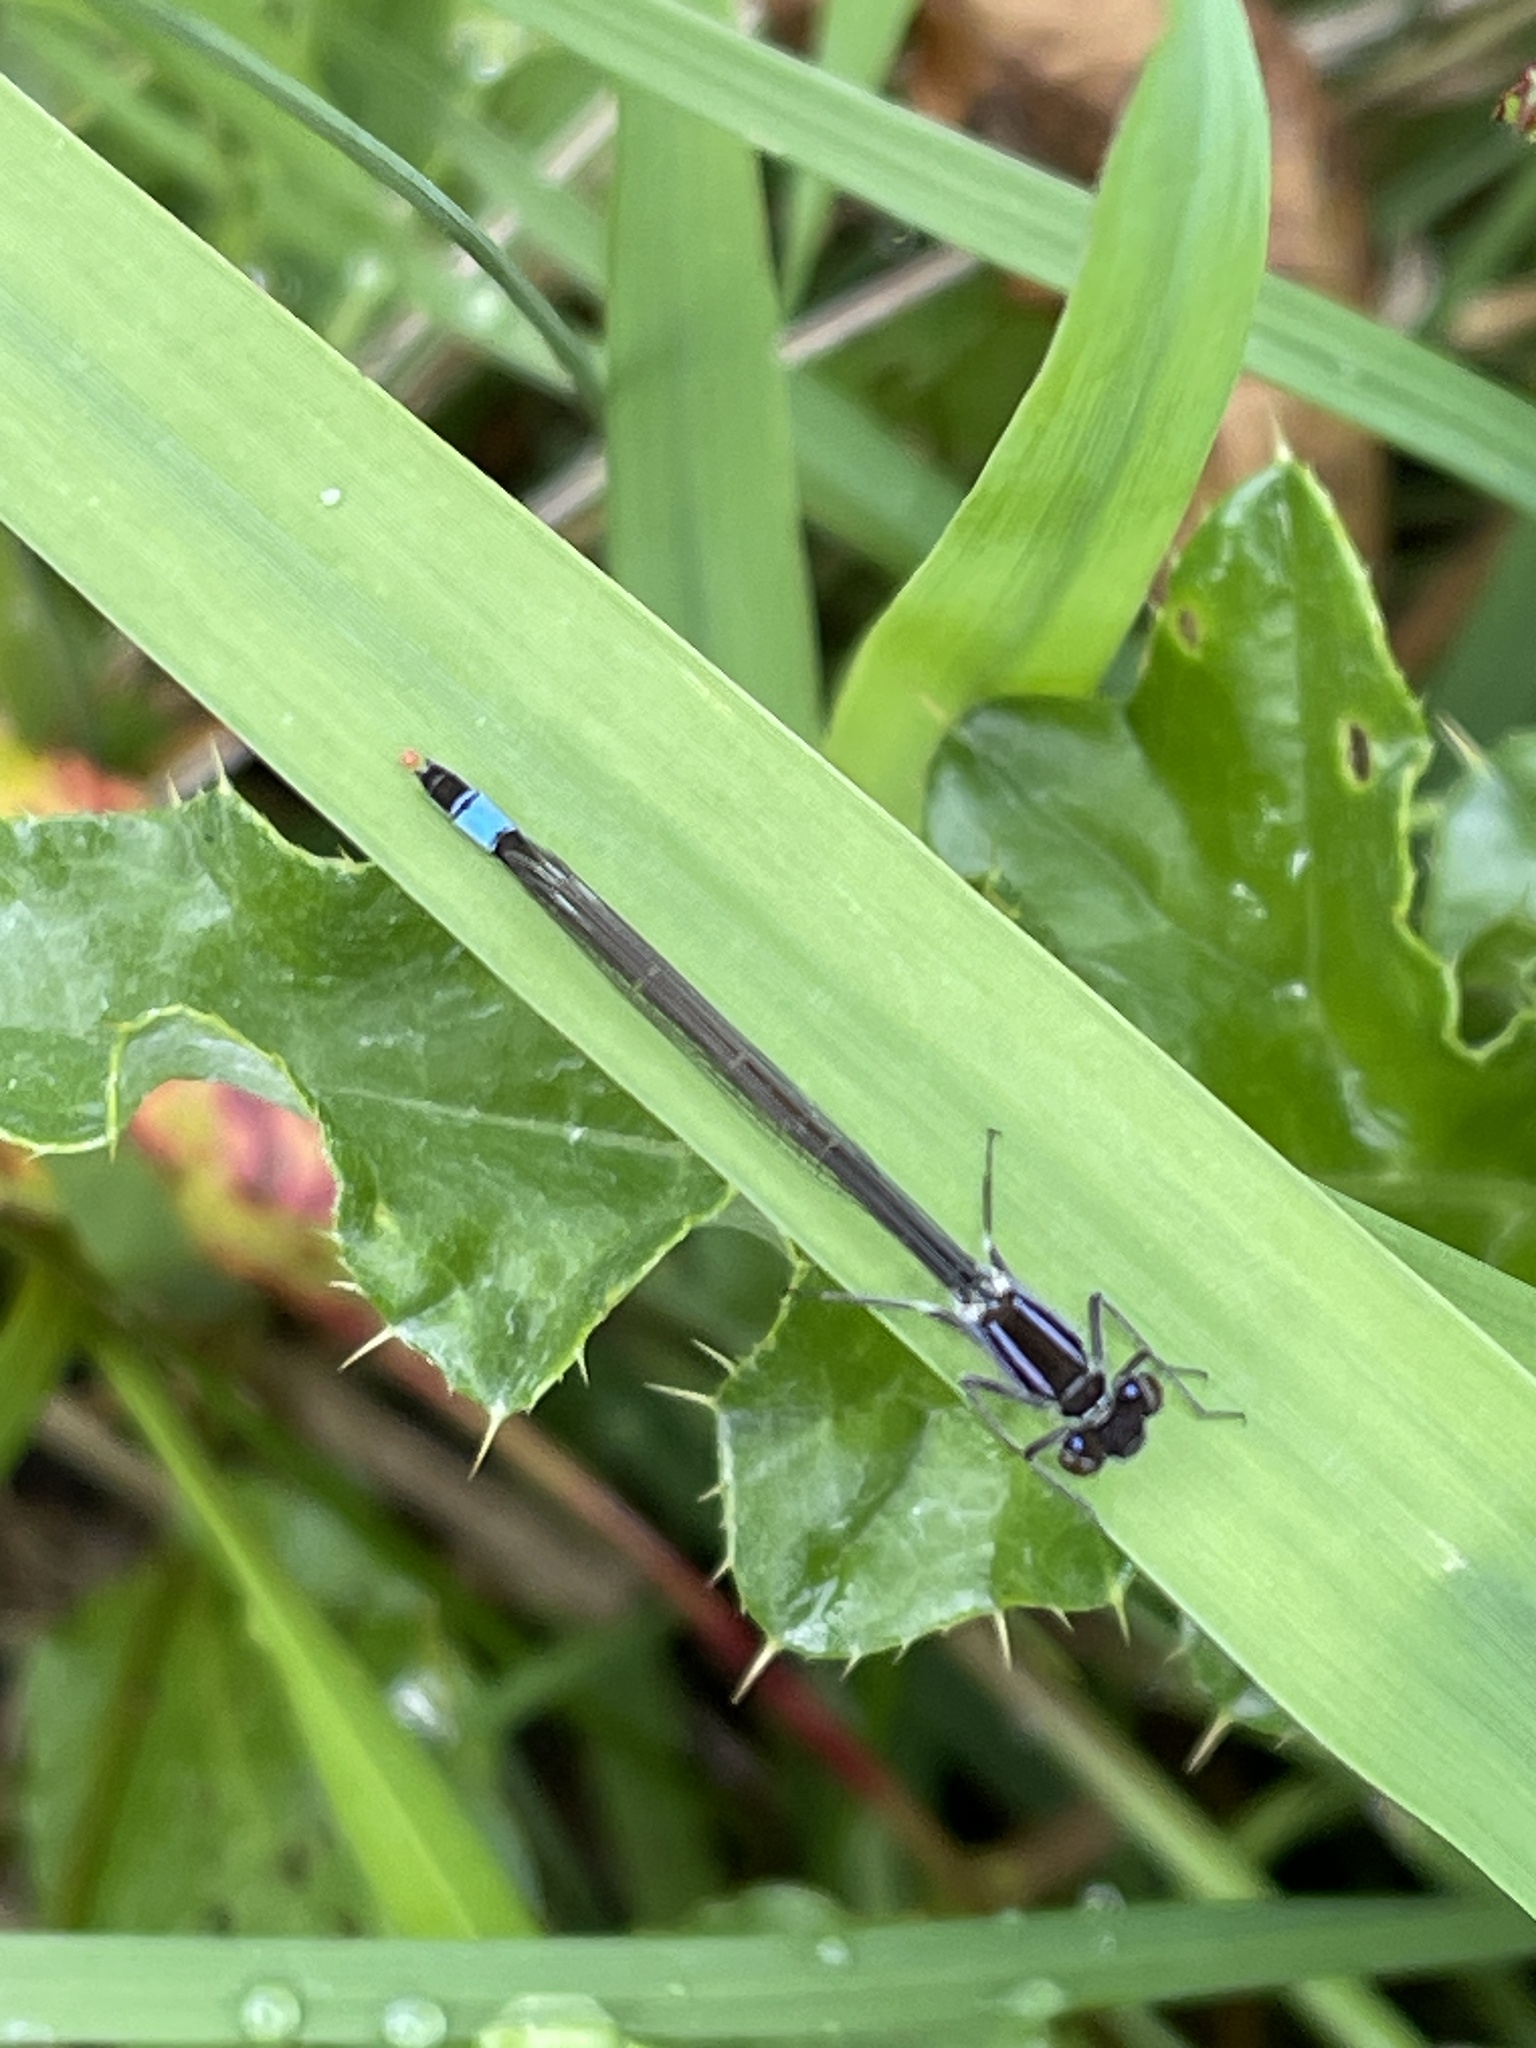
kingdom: Animalia
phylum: Arthropoda
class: Insecta
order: Odonata
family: Coenagrionidae
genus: Ischnura
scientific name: Ischnura elegans
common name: Blue-tailed damselfly
